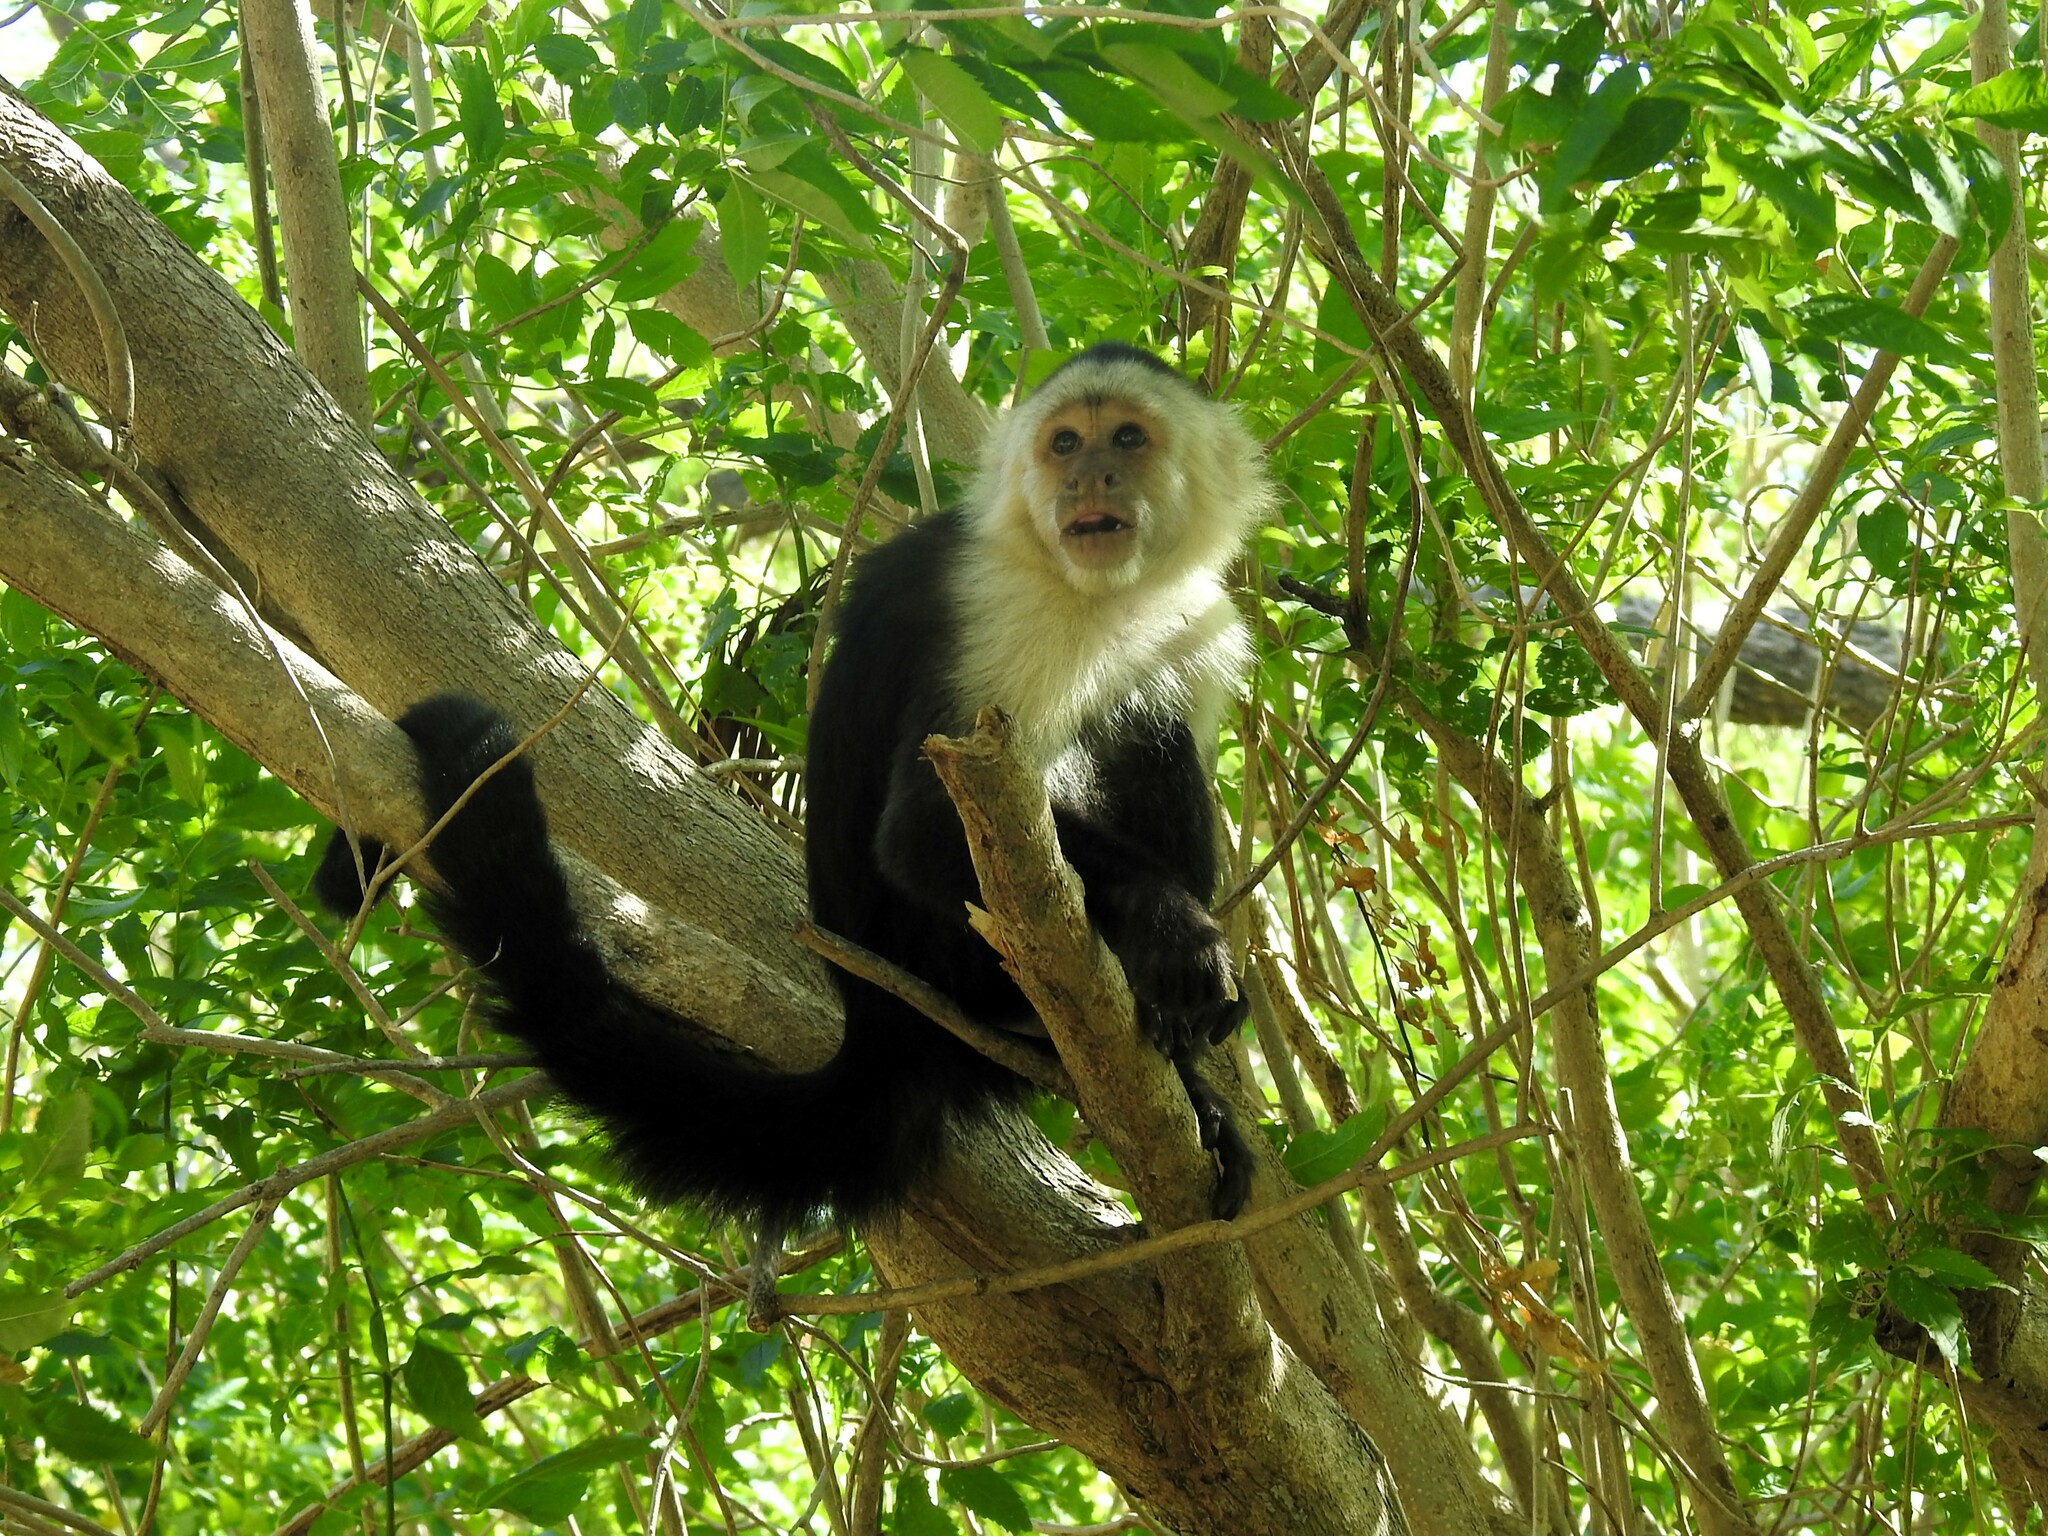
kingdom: Animalia
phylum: Chordata
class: Mammalia
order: Primates
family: Cebidae
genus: Cebus
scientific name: Cebus imitator
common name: Panamanian white-faced capuchin
